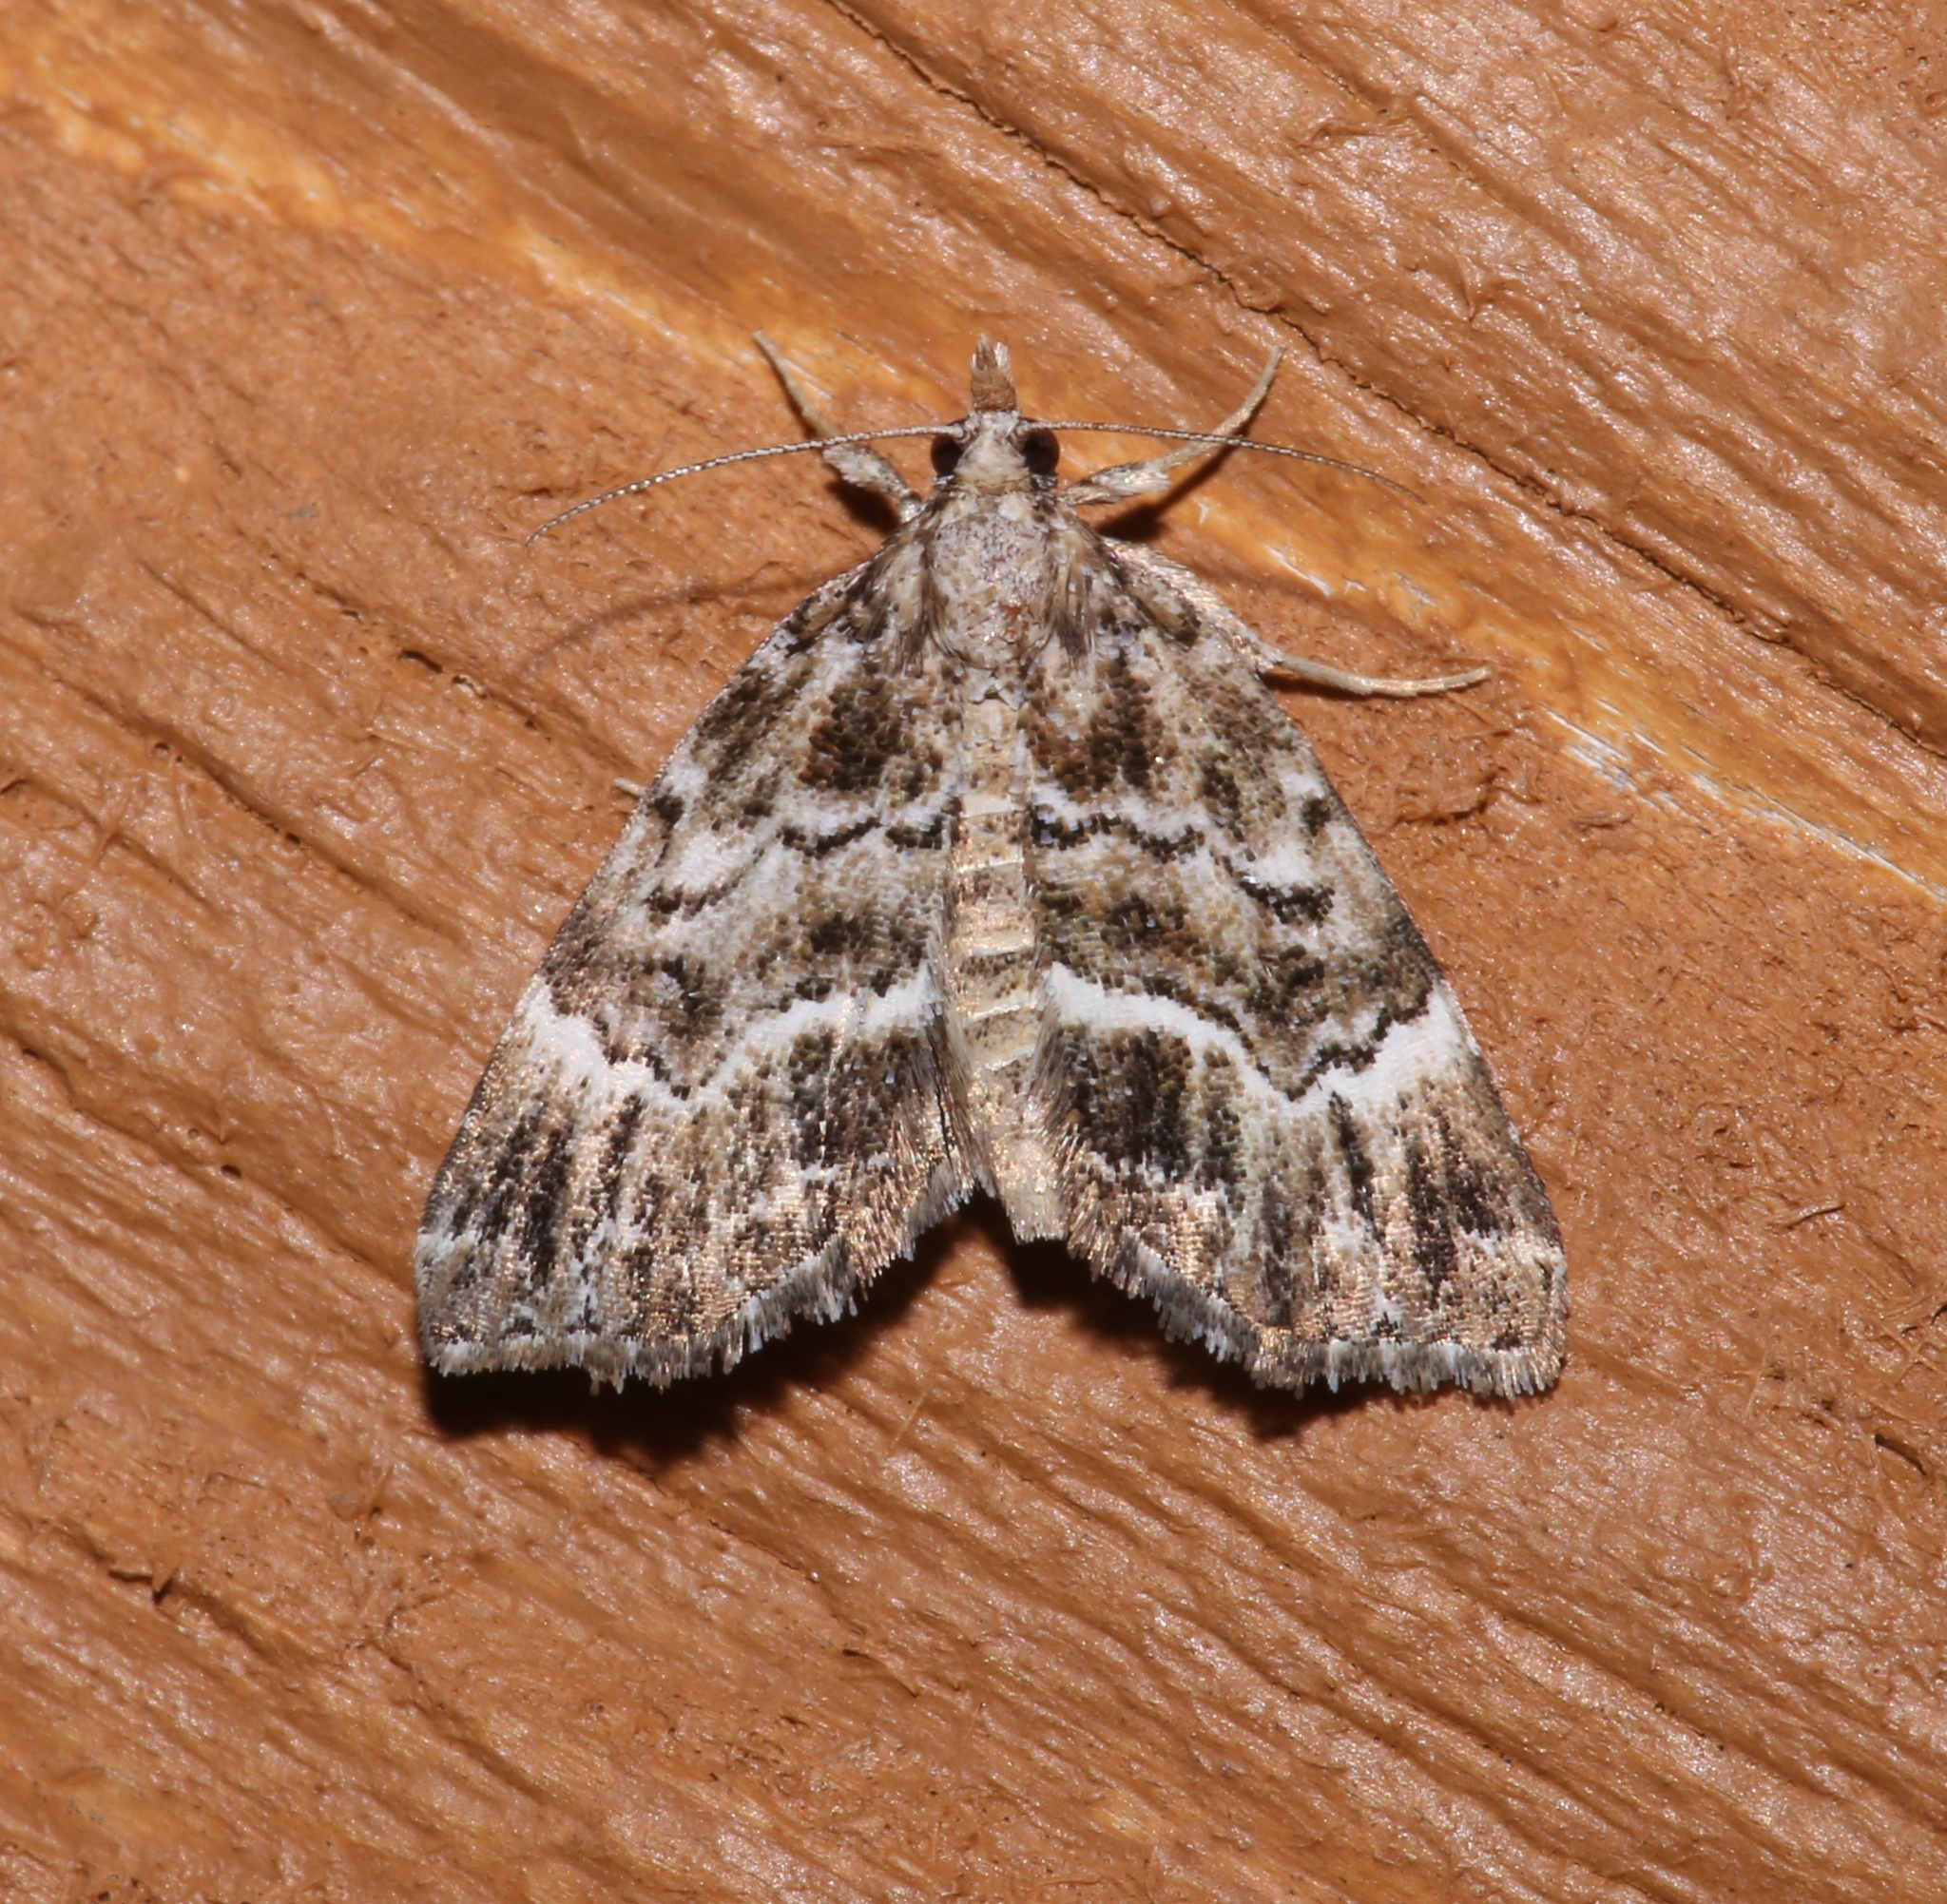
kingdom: Animalia
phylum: Arthropoda
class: Insecta
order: Lepidoptera
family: Erebidae
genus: Cutina
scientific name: Cutina arcuata
